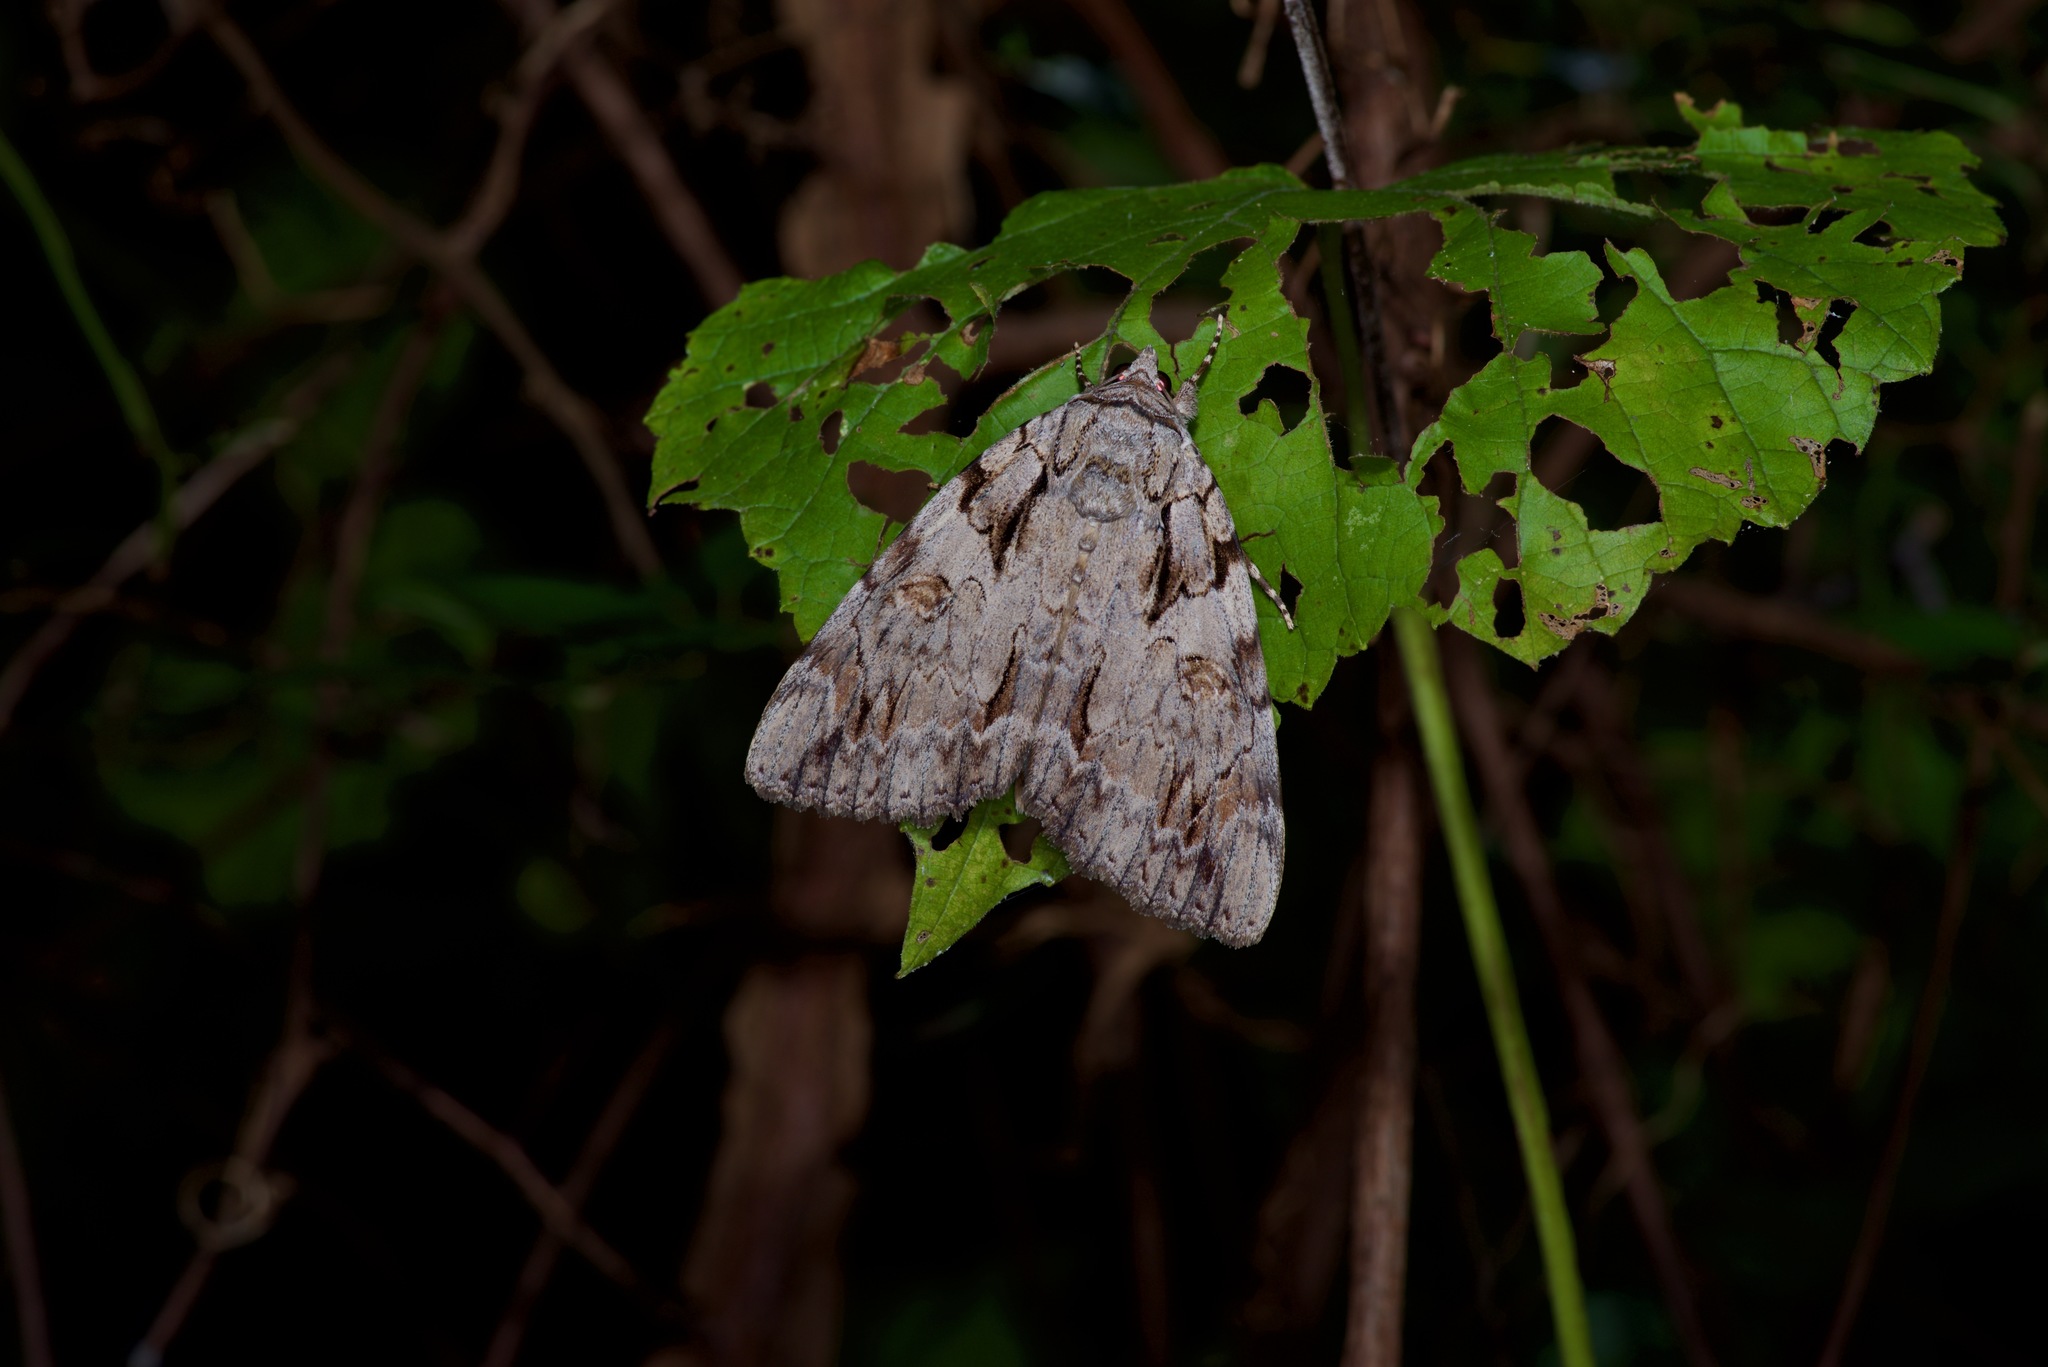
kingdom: Animalia
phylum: Arthropoda
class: Insecta
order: Lepidoptera
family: Erebidae
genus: Catocala
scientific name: Catocala neogama
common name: Bride underwing
